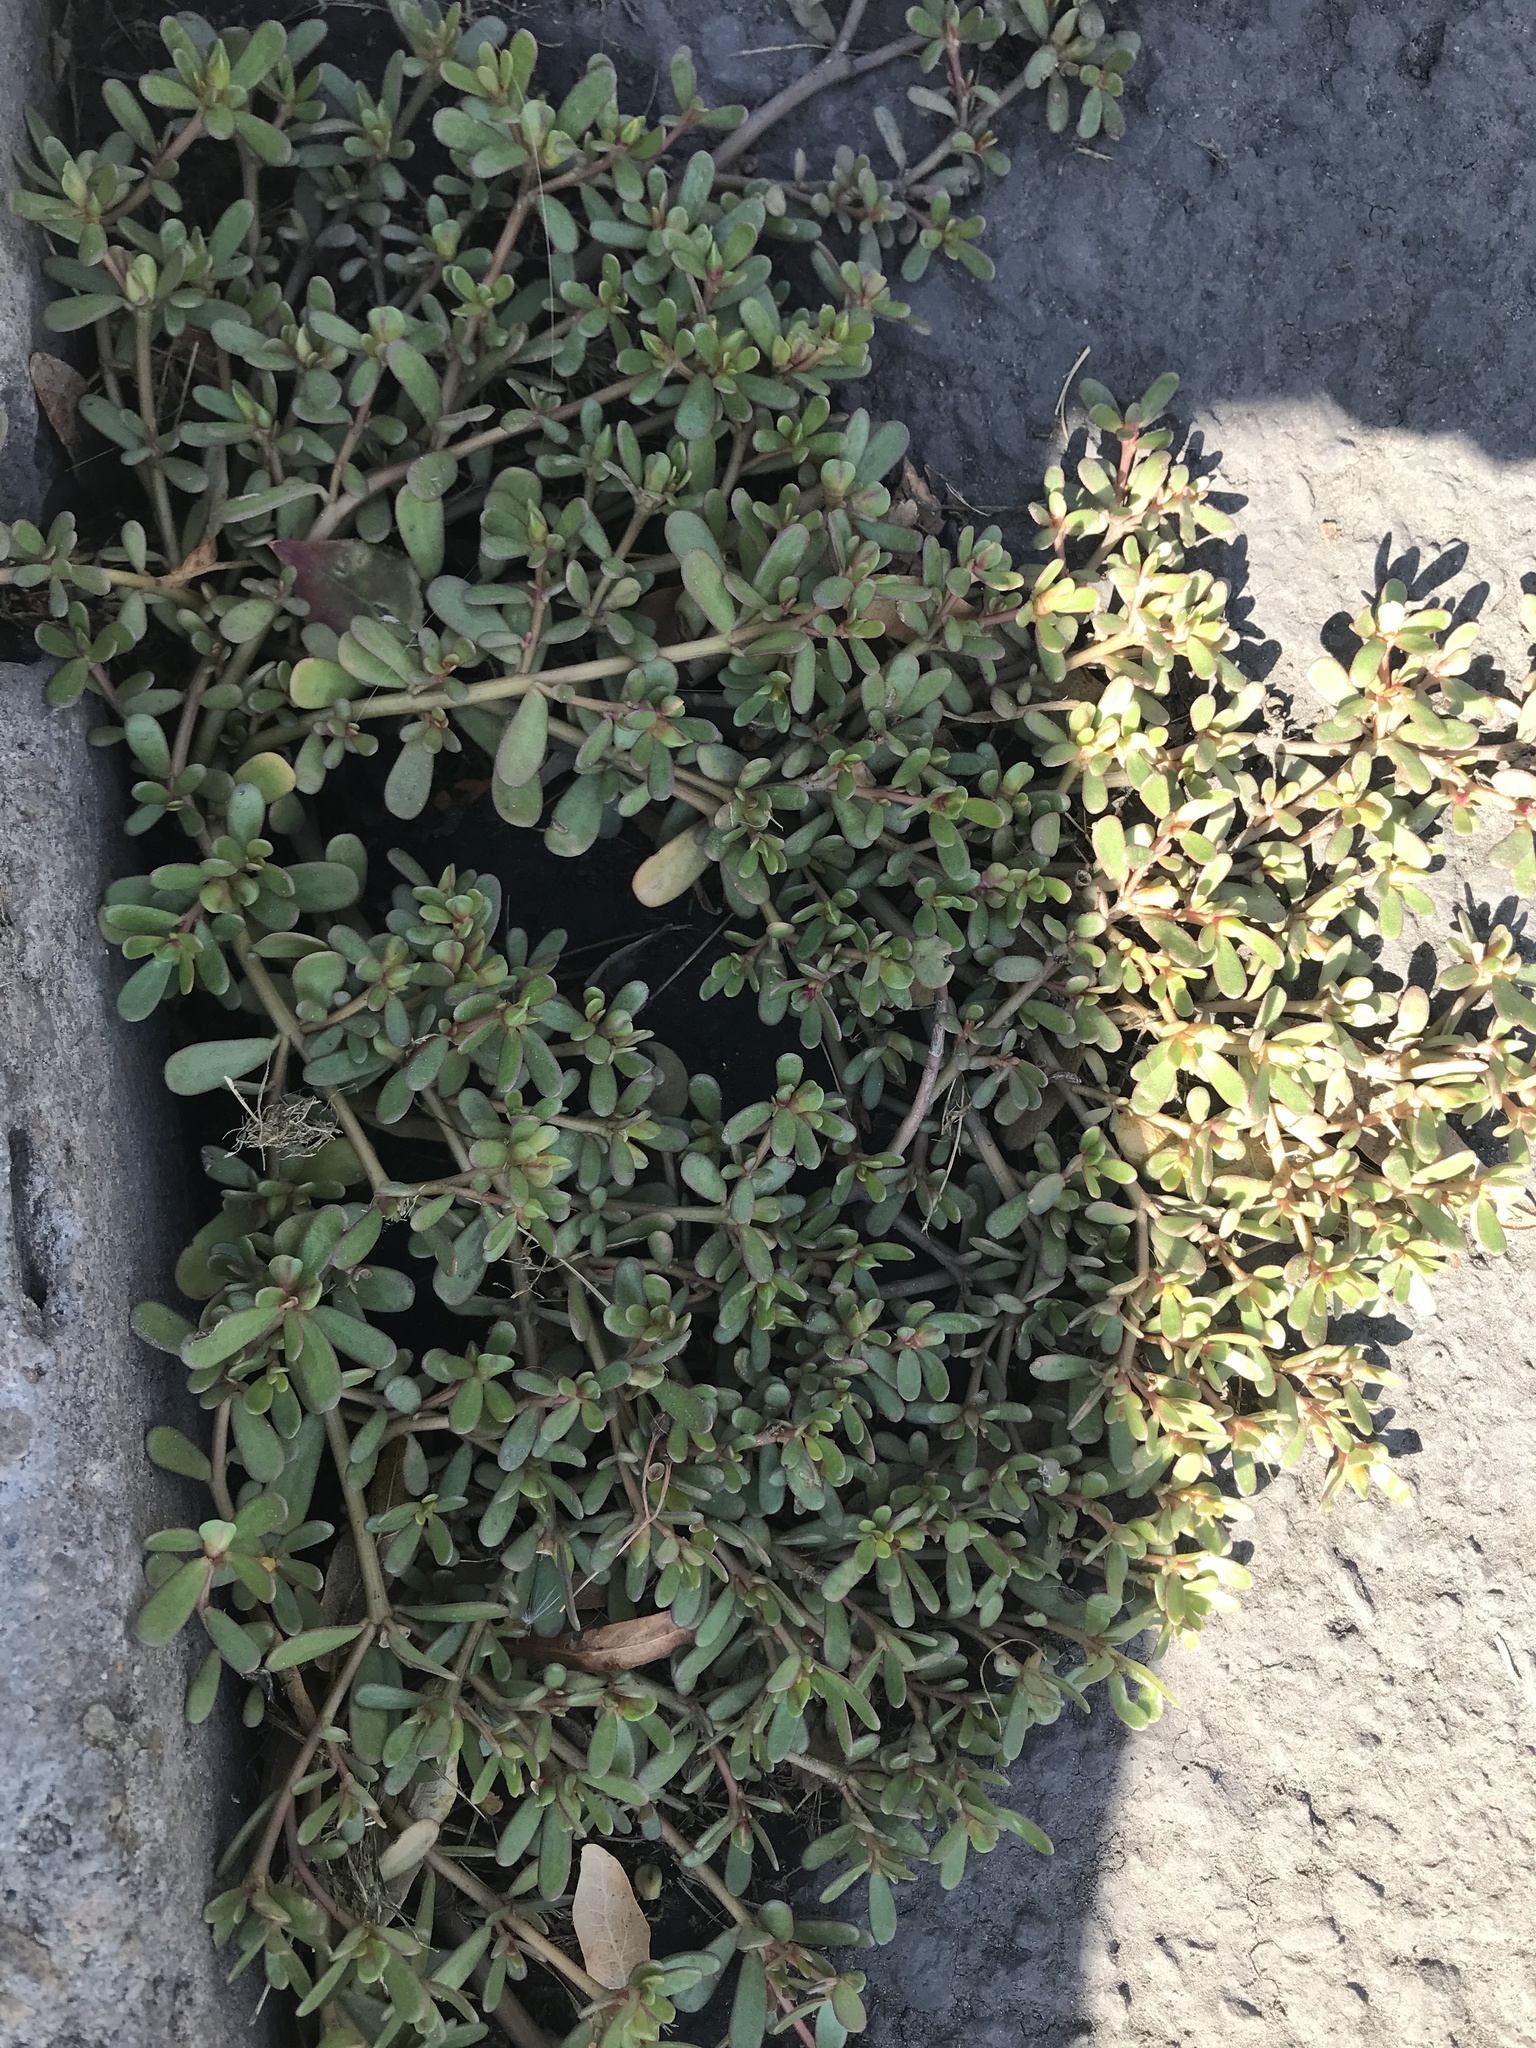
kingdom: Plantae
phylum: Tracheophyta
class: Magnoliopsida
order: Caryophyllales
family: Portulacaceae
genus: Portulaca
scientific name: Portulaca oleracea
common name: Common purslane
